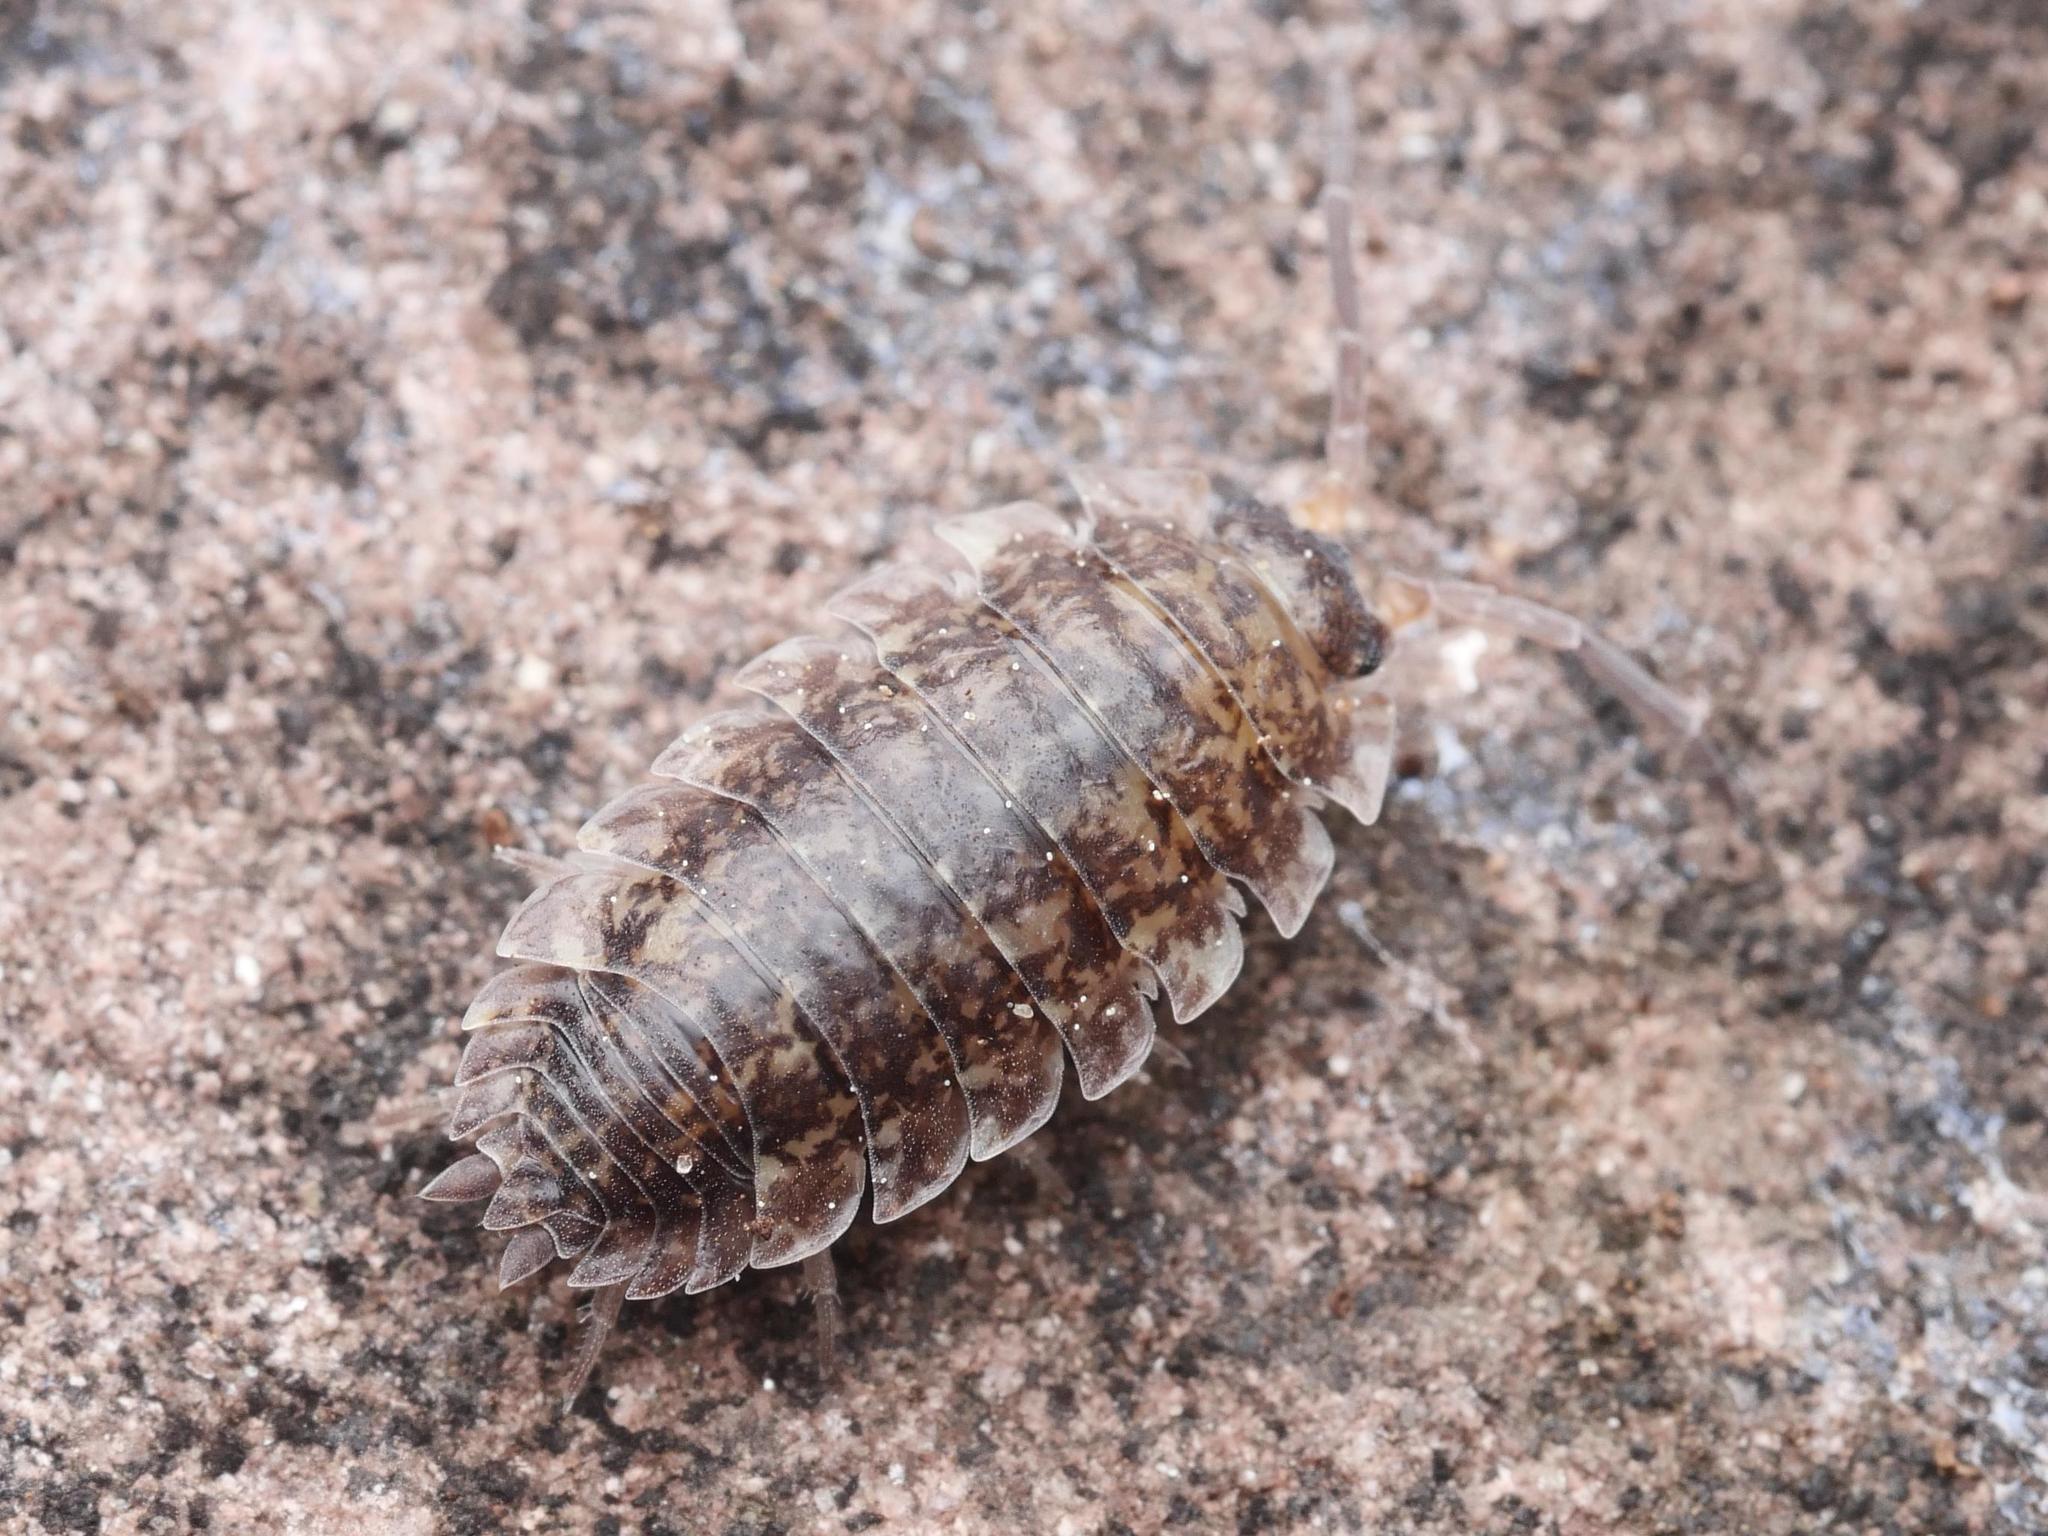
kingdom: Animalia
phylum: Arthropoda
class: Malacostraca
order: Isopoda
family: Porcellionidae
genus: Porcellio
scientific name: Porcellio scaber
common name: Common rough woodlouse
